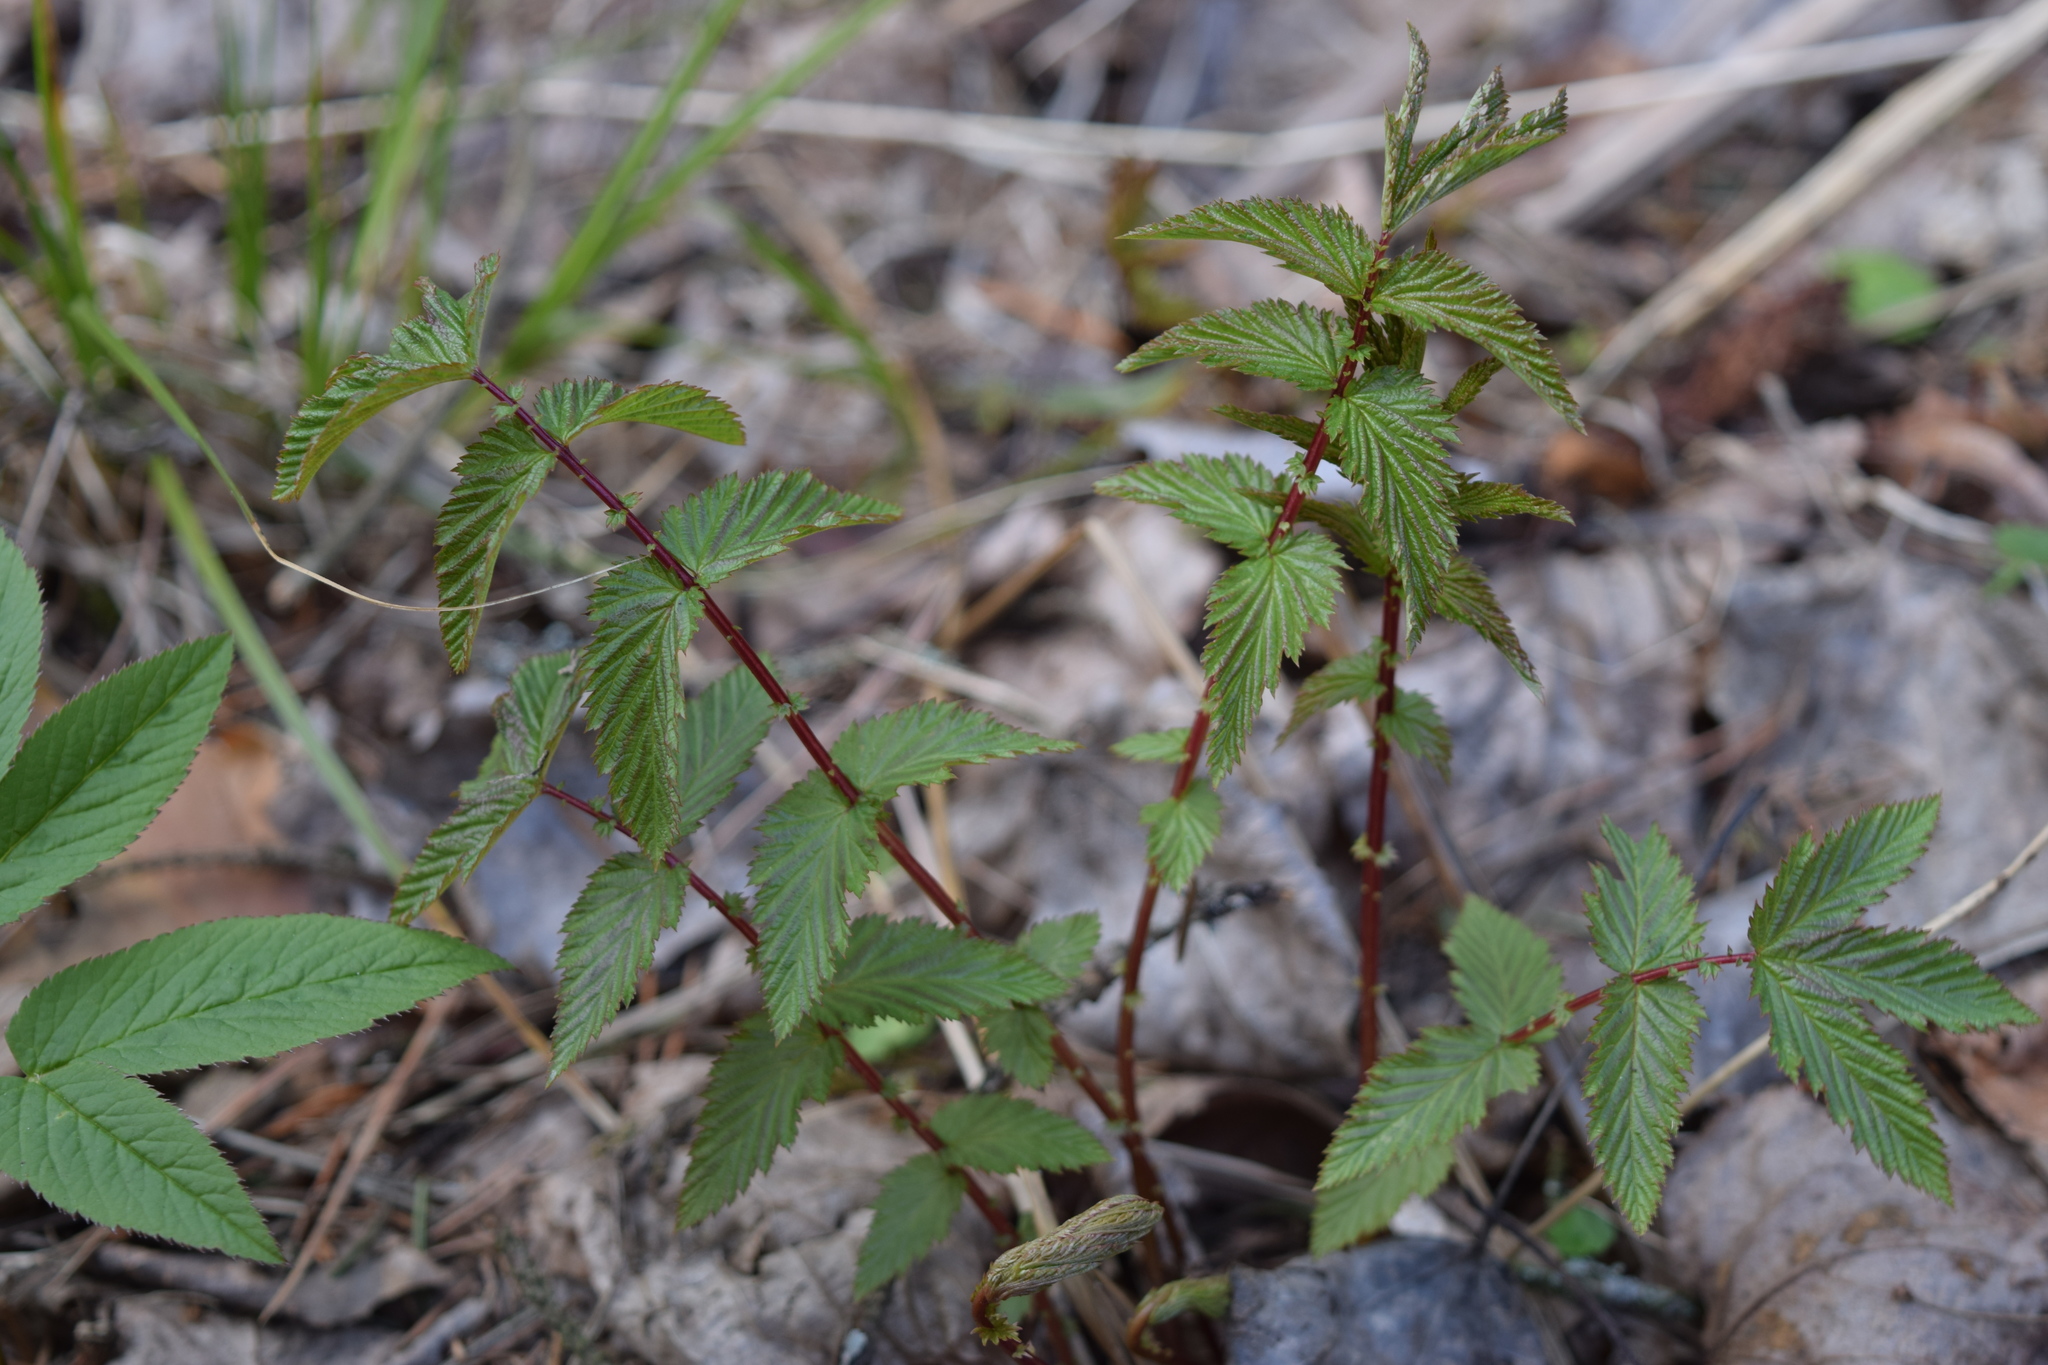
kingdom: Plantae
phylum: Tracheophyta
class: Magnoliopsida
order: Rosales
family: Rosaceae
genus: Filipendula
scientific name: Filipendula ulmaria
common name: Meadowsweet
